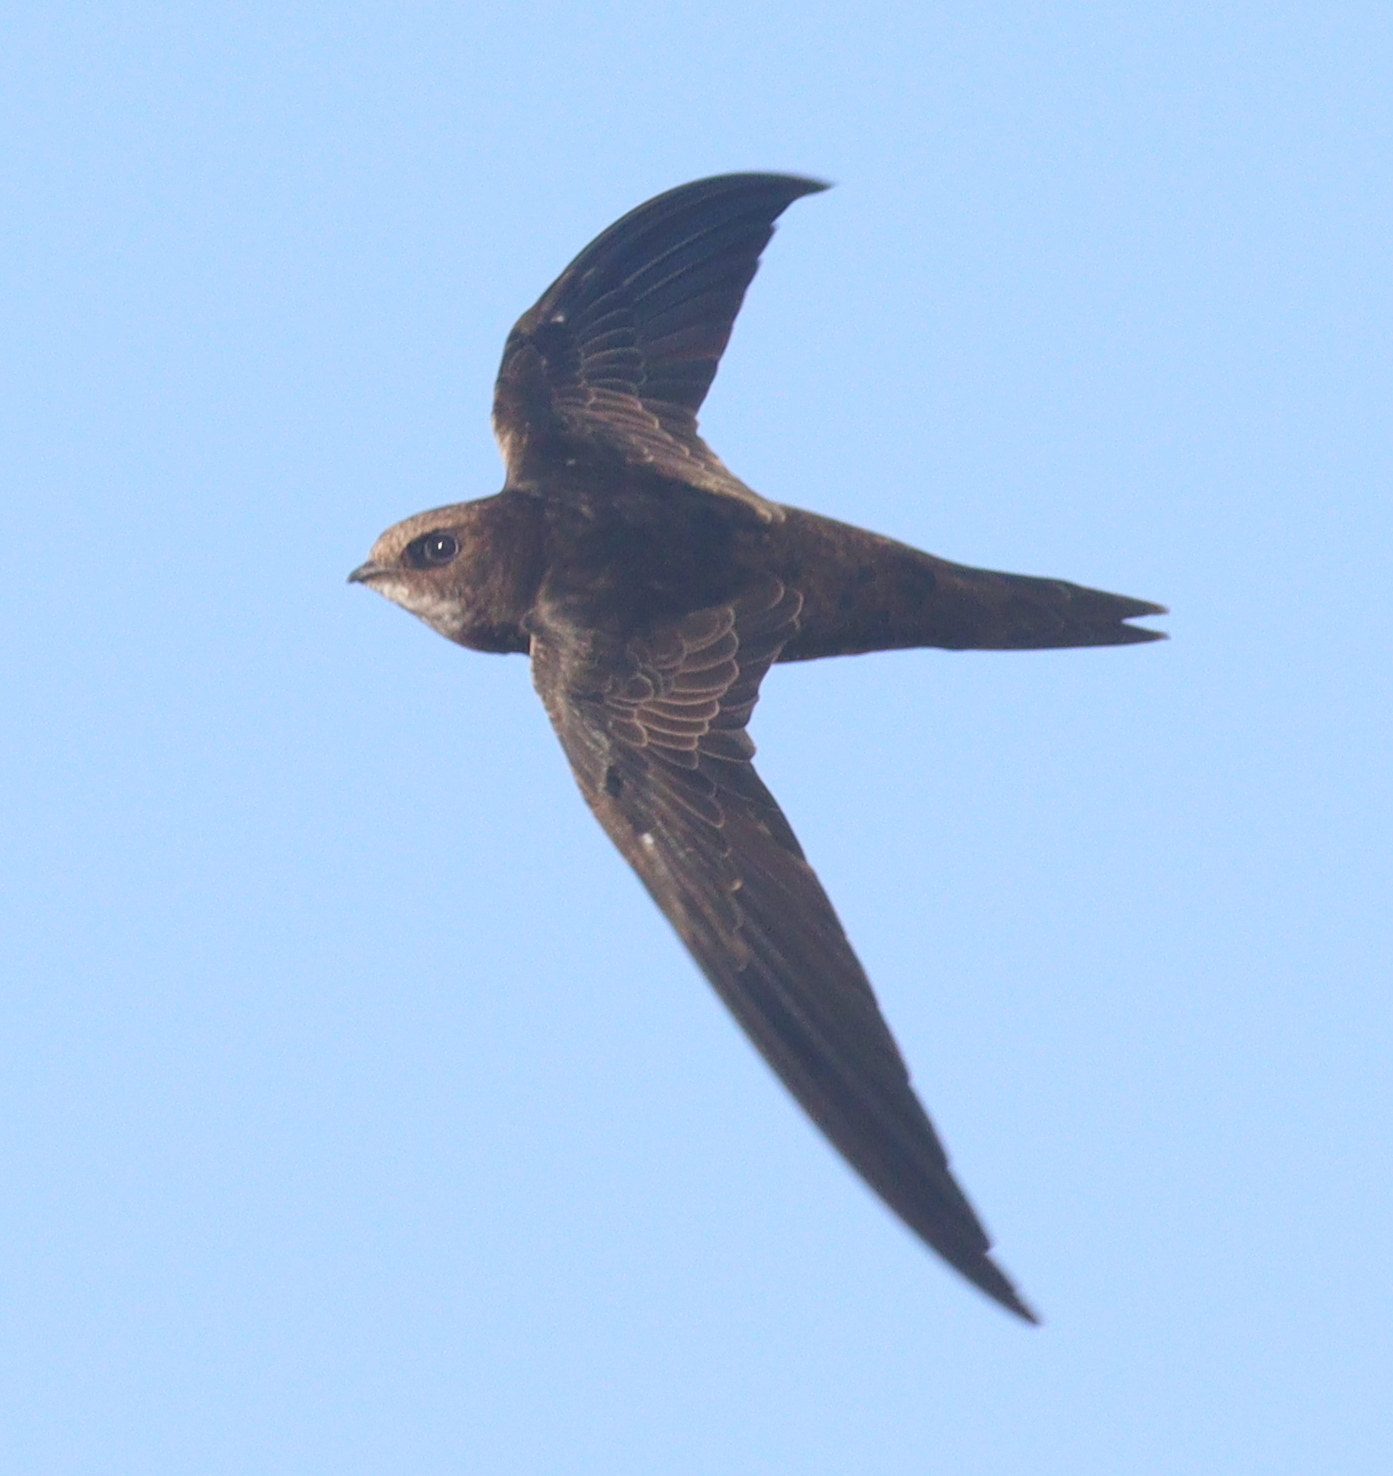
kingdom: Animalia
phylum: Chordata
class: Aves
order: Apodiformes
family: Apodidae
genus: Apus
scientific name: Apus apus
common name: Common swift
